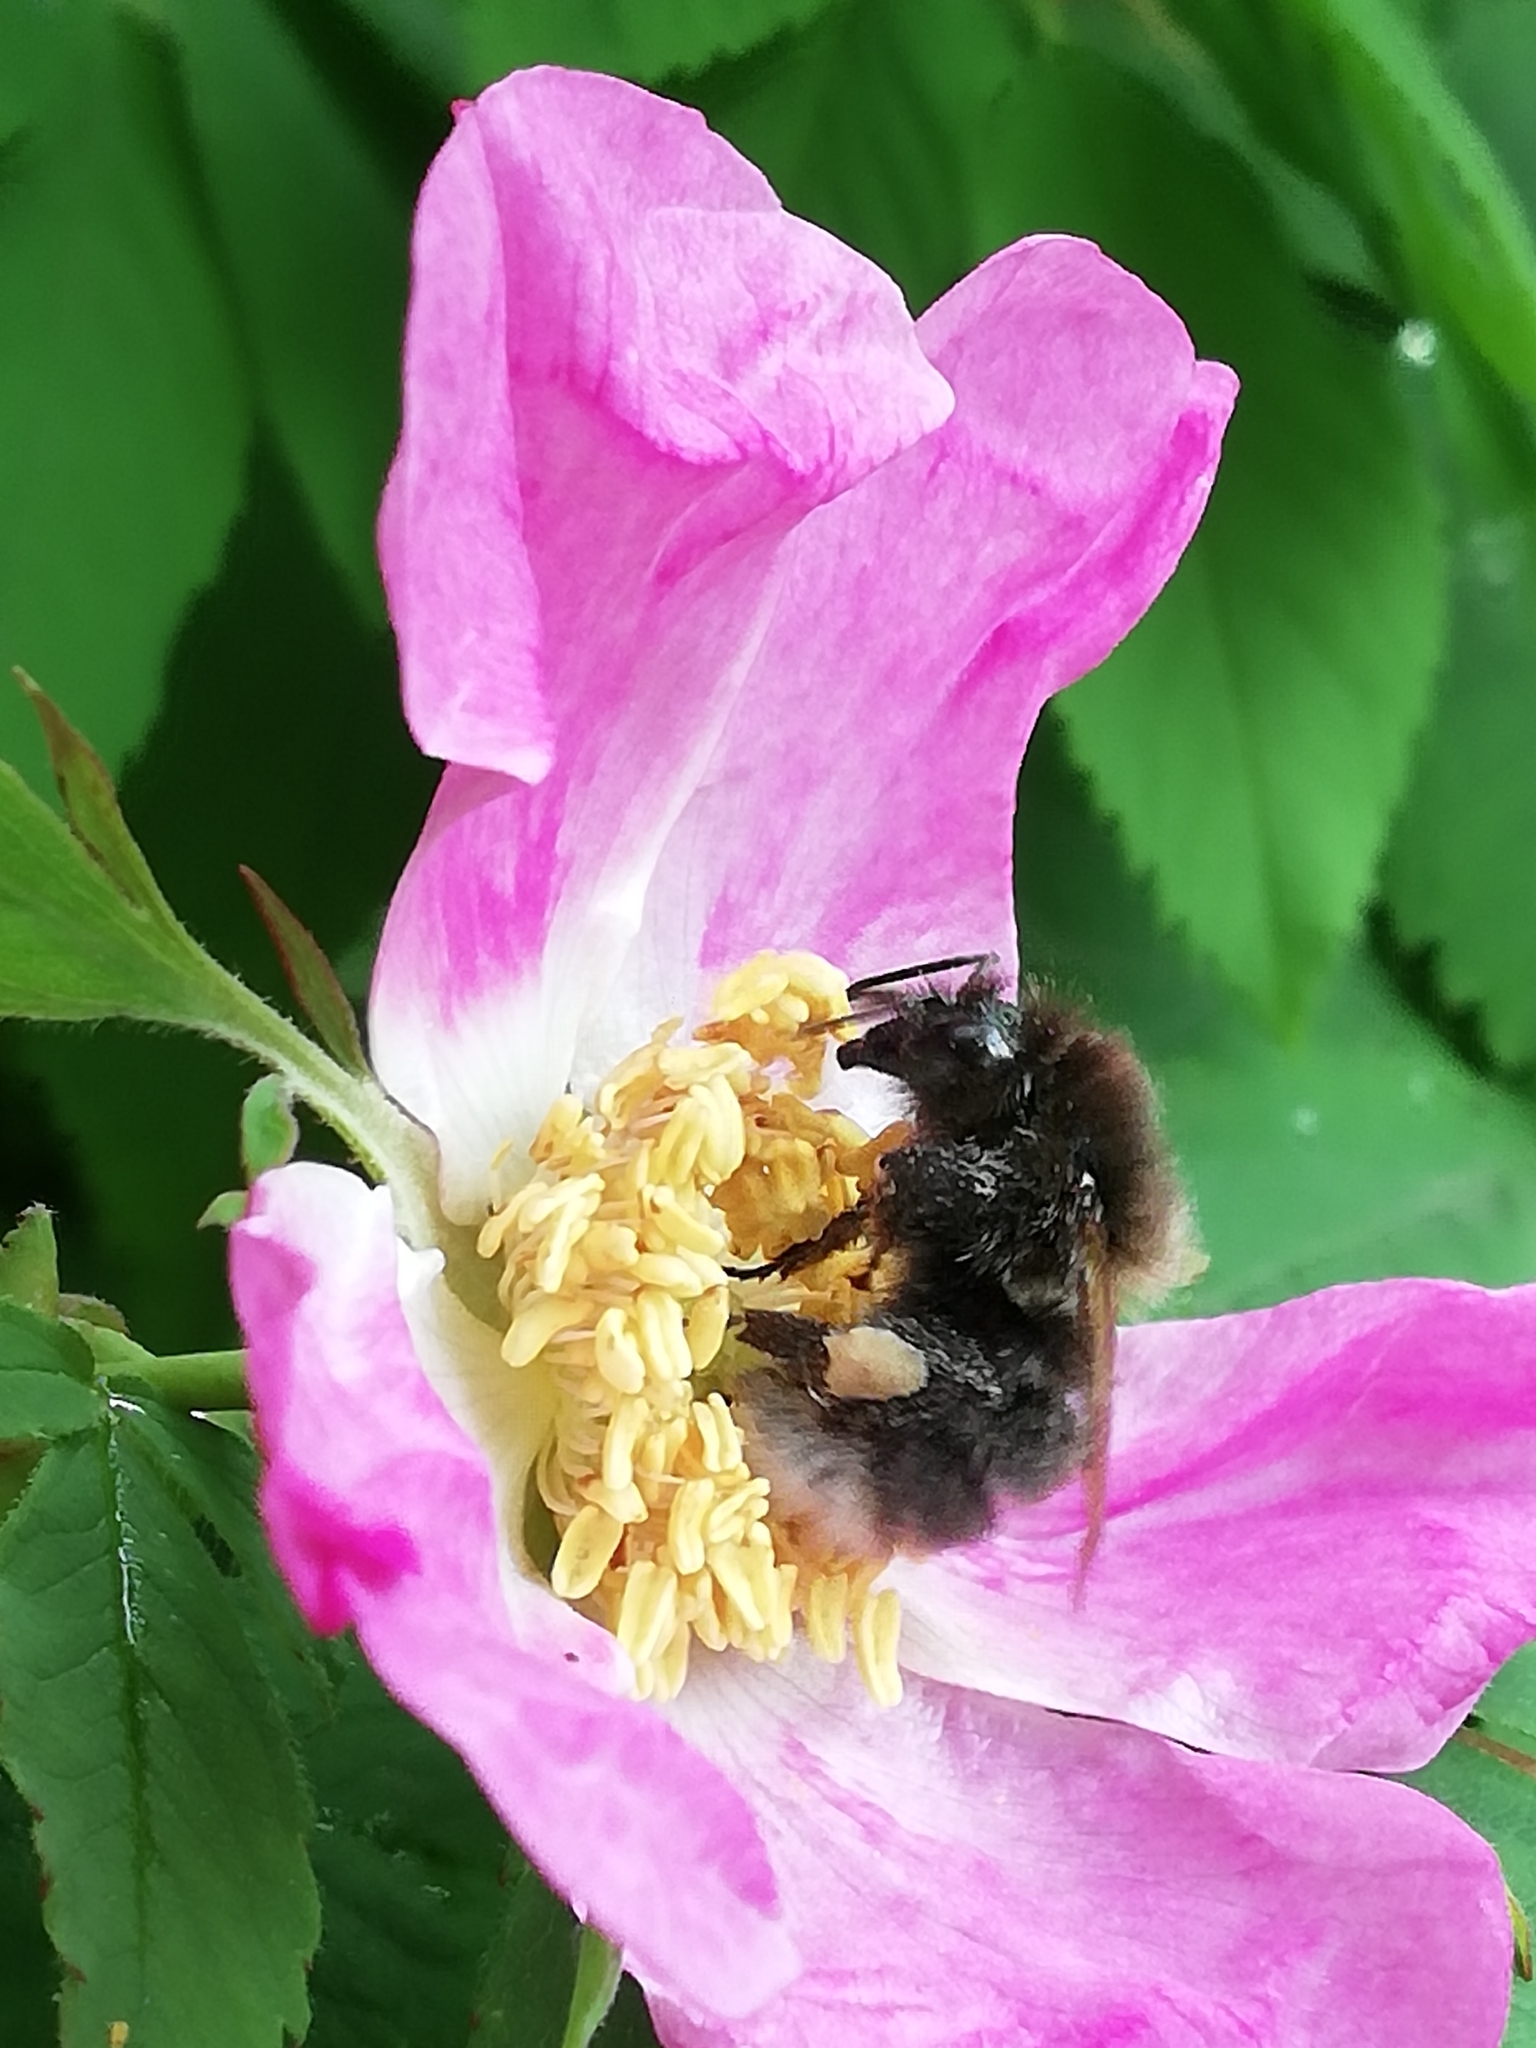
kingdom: Animalia
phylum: Arthropoda
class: Insecta
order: Hymenoptera
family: Apidae
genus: Bombus
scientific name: Bombus hypnorum
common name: New garden bumblebee
